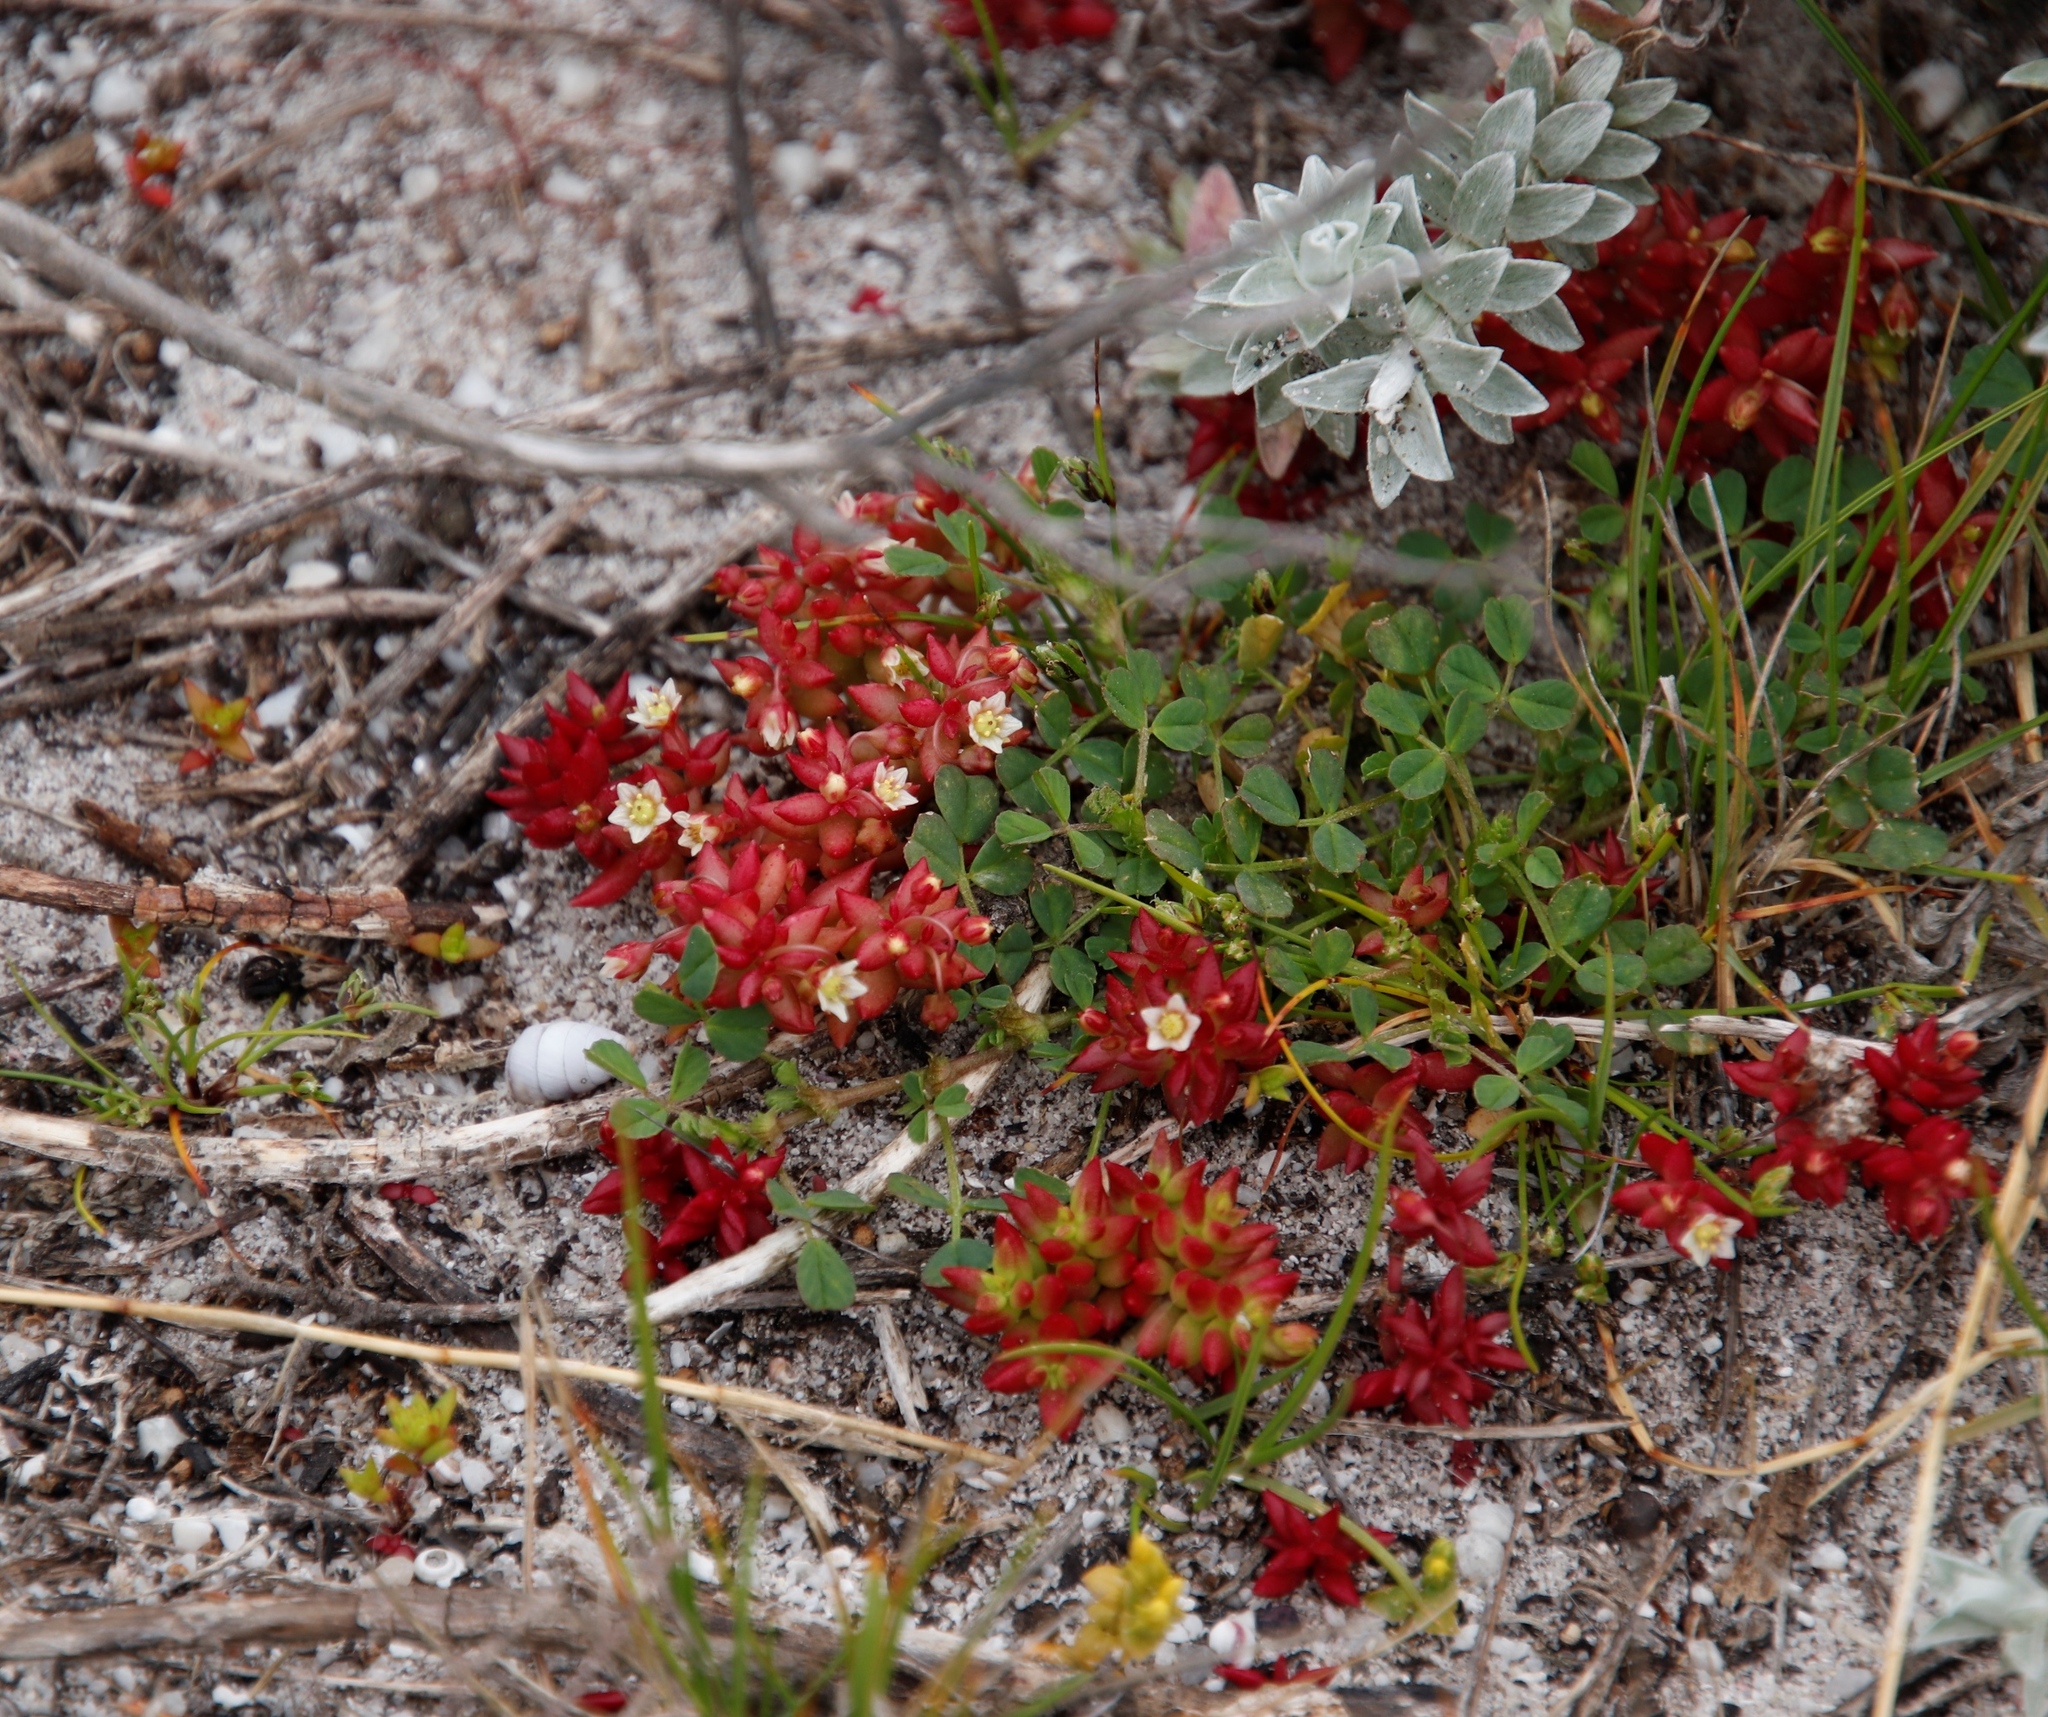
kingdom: Plantae
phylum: Tracheophyta
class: Magnoliopsida
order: Saxifragales
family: Crassulaceae
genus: Crassula
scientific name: Crassula expansa
